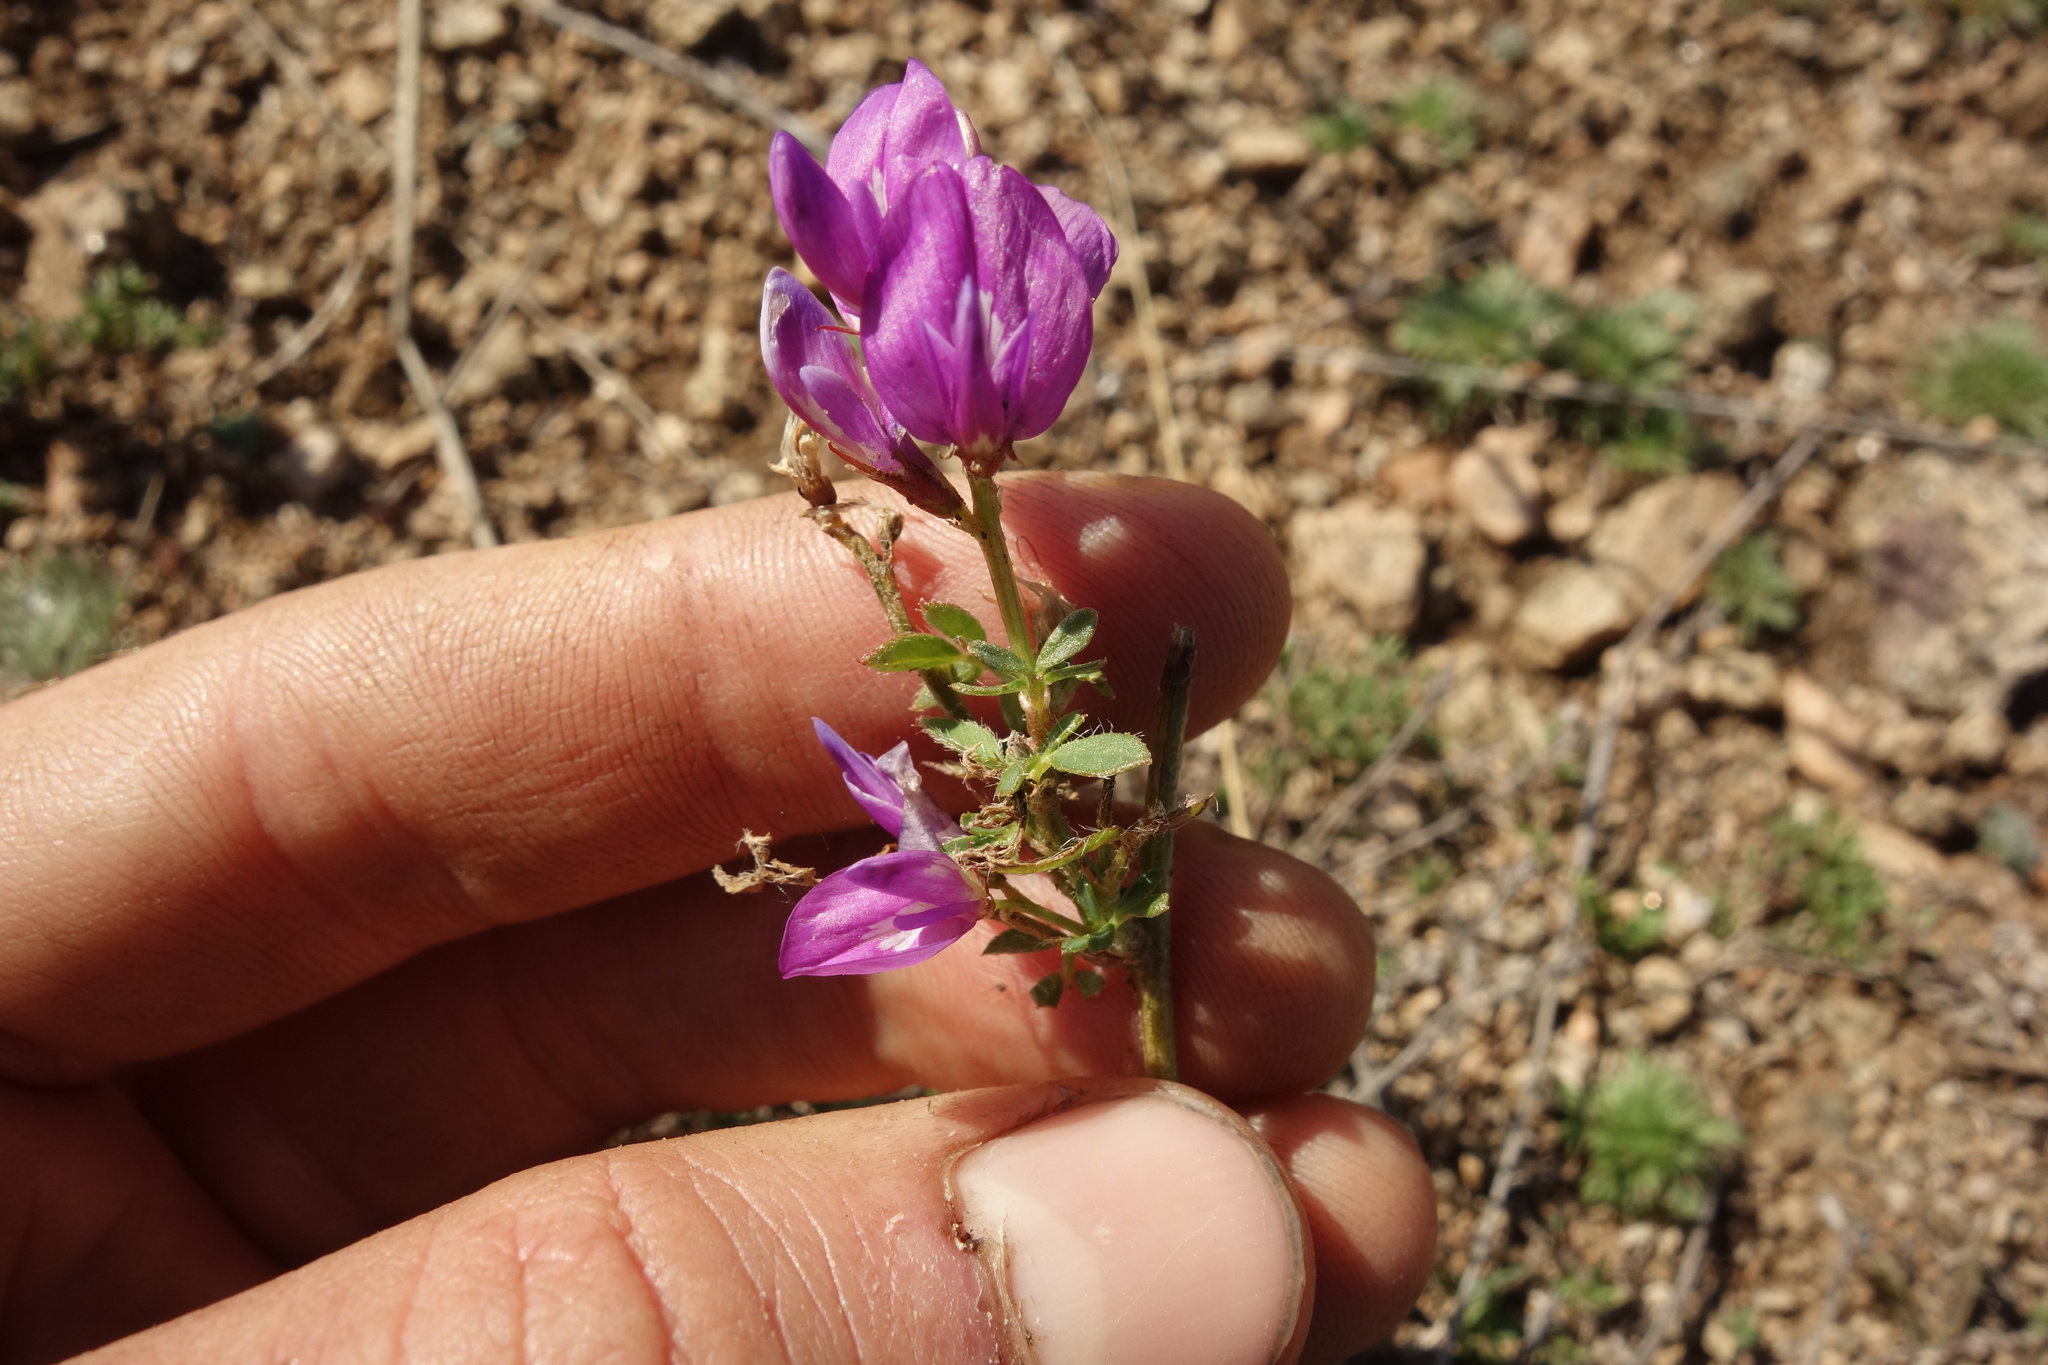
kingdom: Plantae
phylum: Tracheophyta
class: Magnoliopsida
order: Fabales
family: Fabaceae
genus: Astragalus
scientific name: Astragalus davuricus
